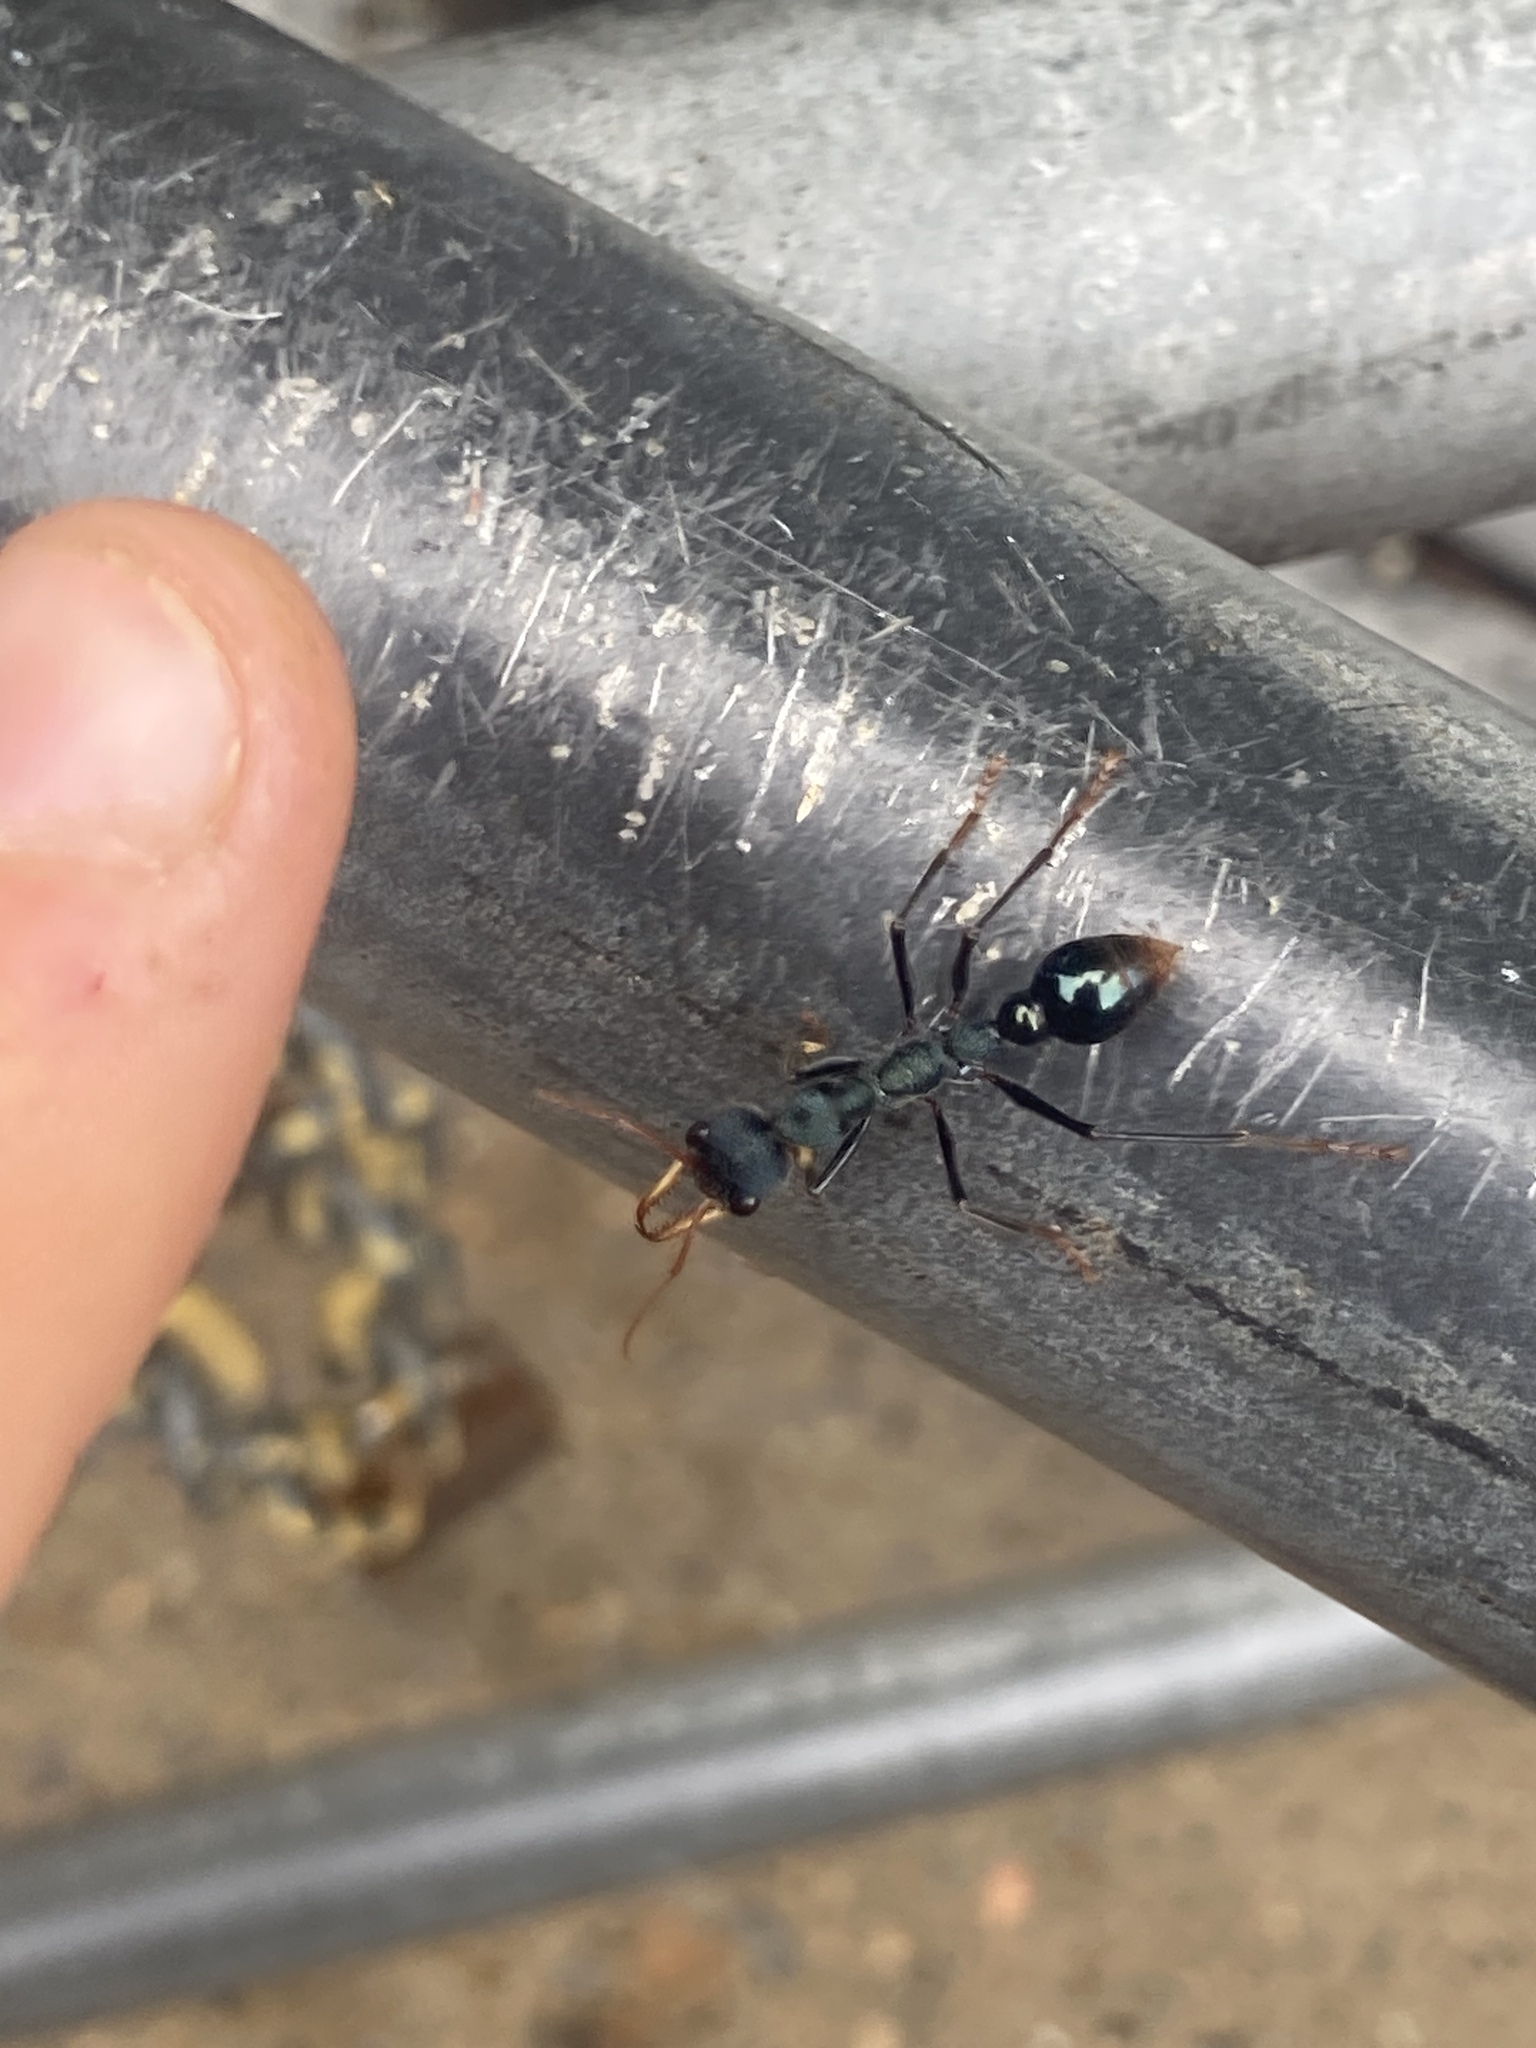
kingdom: Animalia
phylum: Arthropoda
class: Insecta
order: Hymenoptera
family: Formicidae
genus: Myrmecia
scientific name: Myrmecia tarsata
